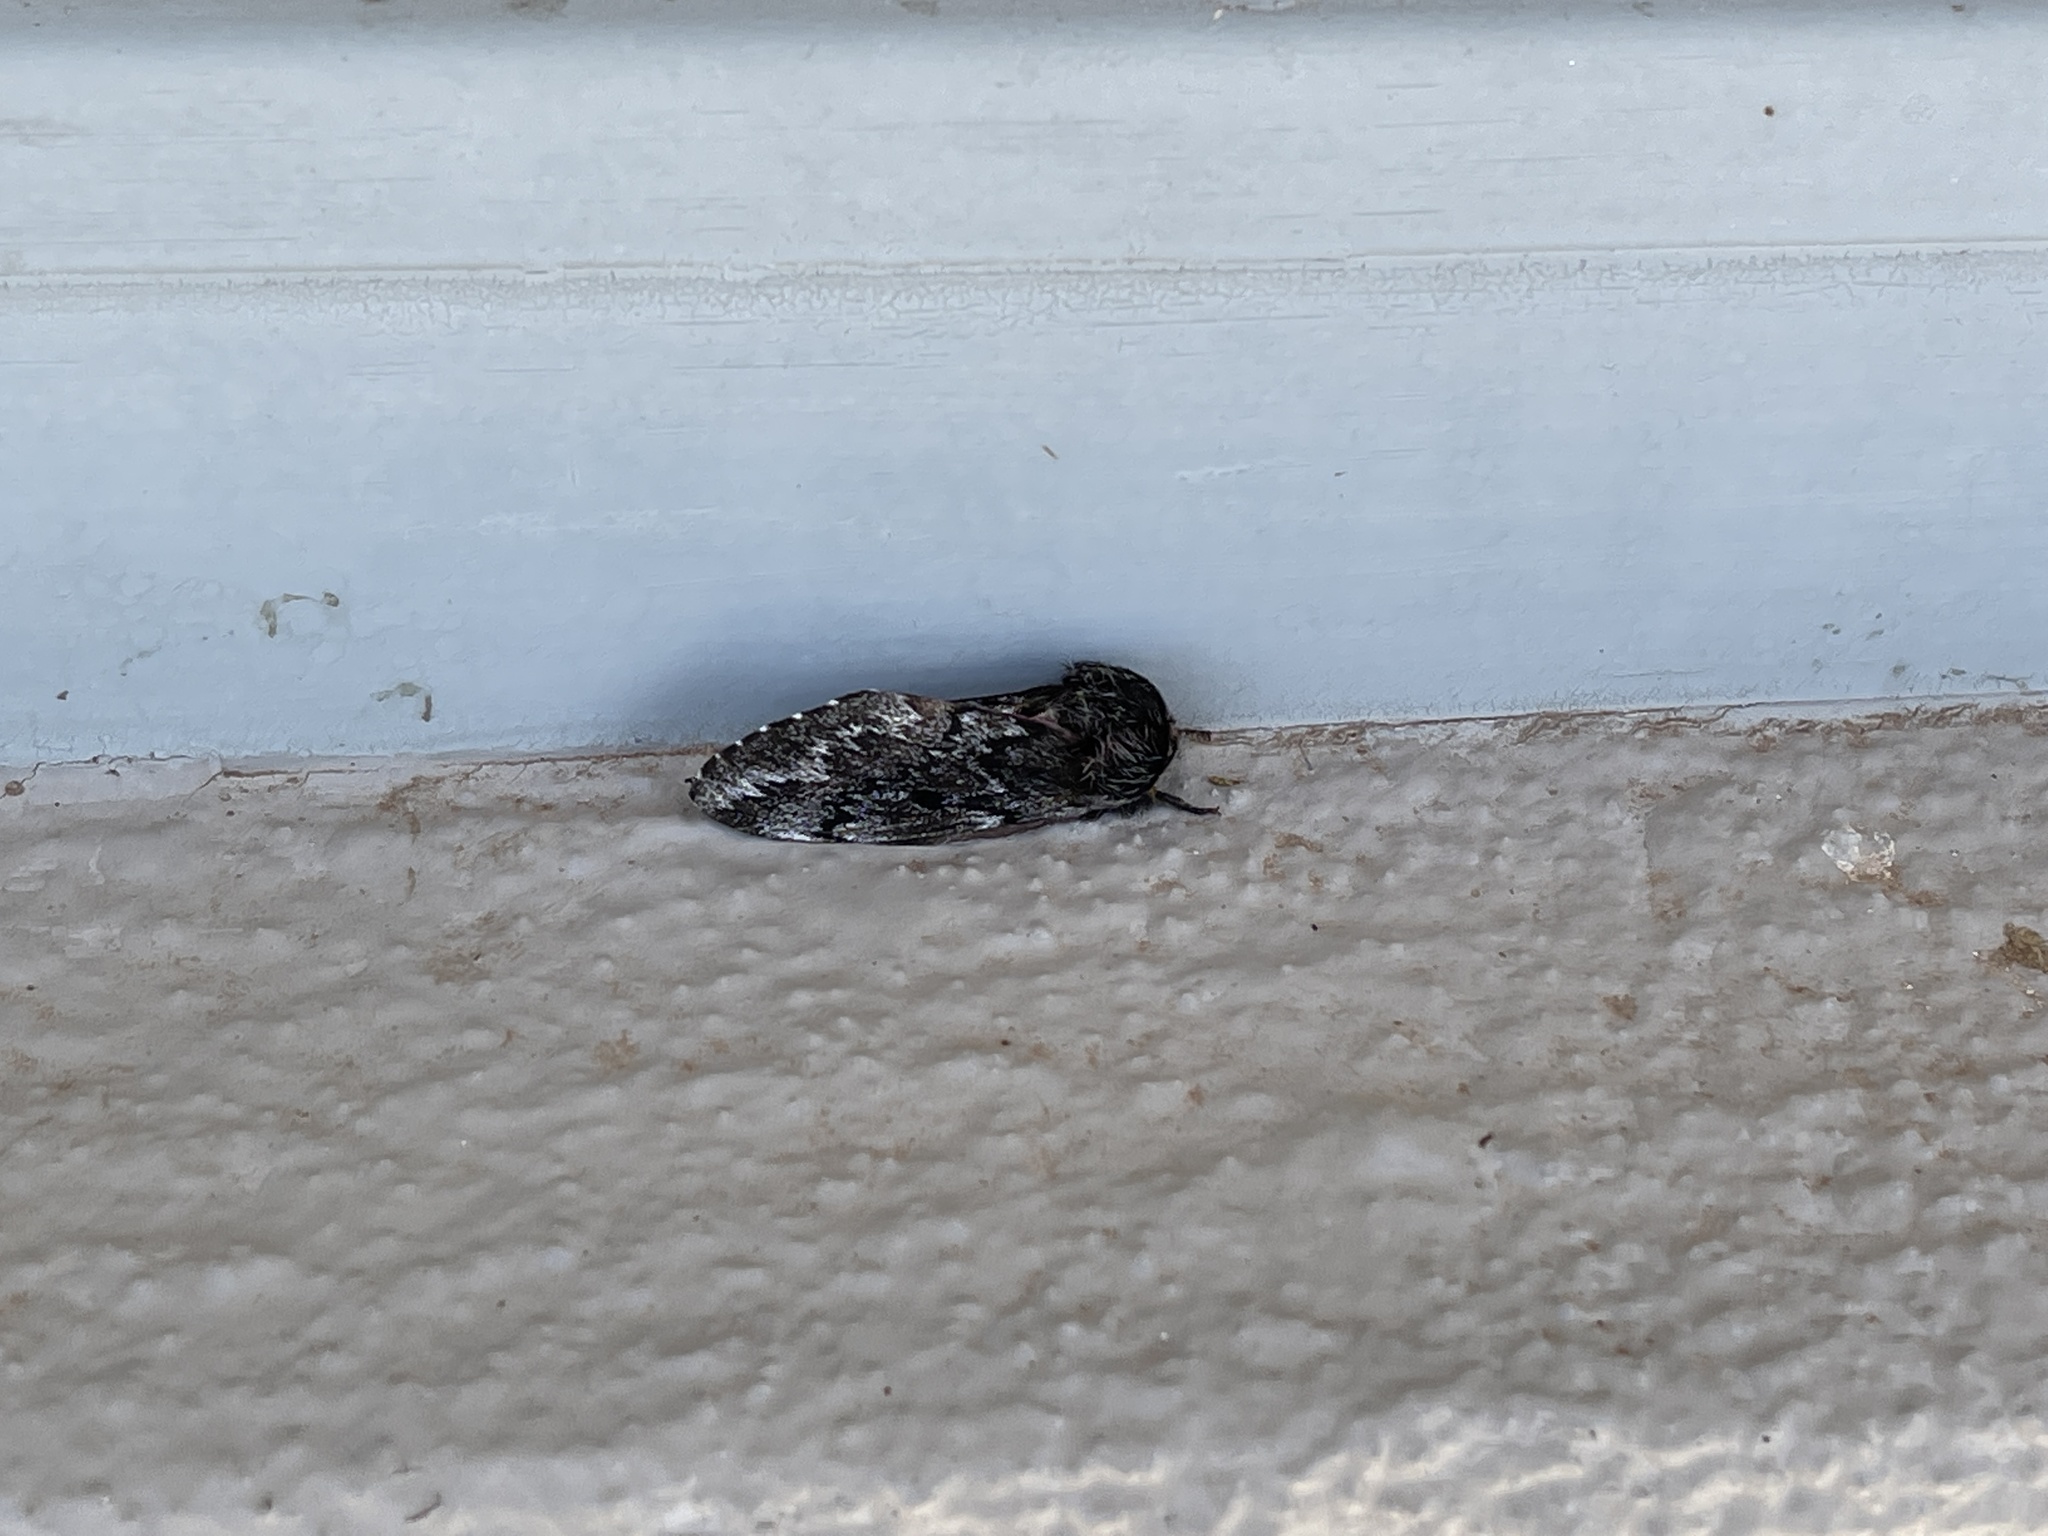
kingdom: Animalia
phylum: Arthropoda
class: Insecta
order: Lepidoptera
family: Saturniidae
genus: Coloradia
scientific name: Coloradia pandora
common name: Pandora pinemoth
